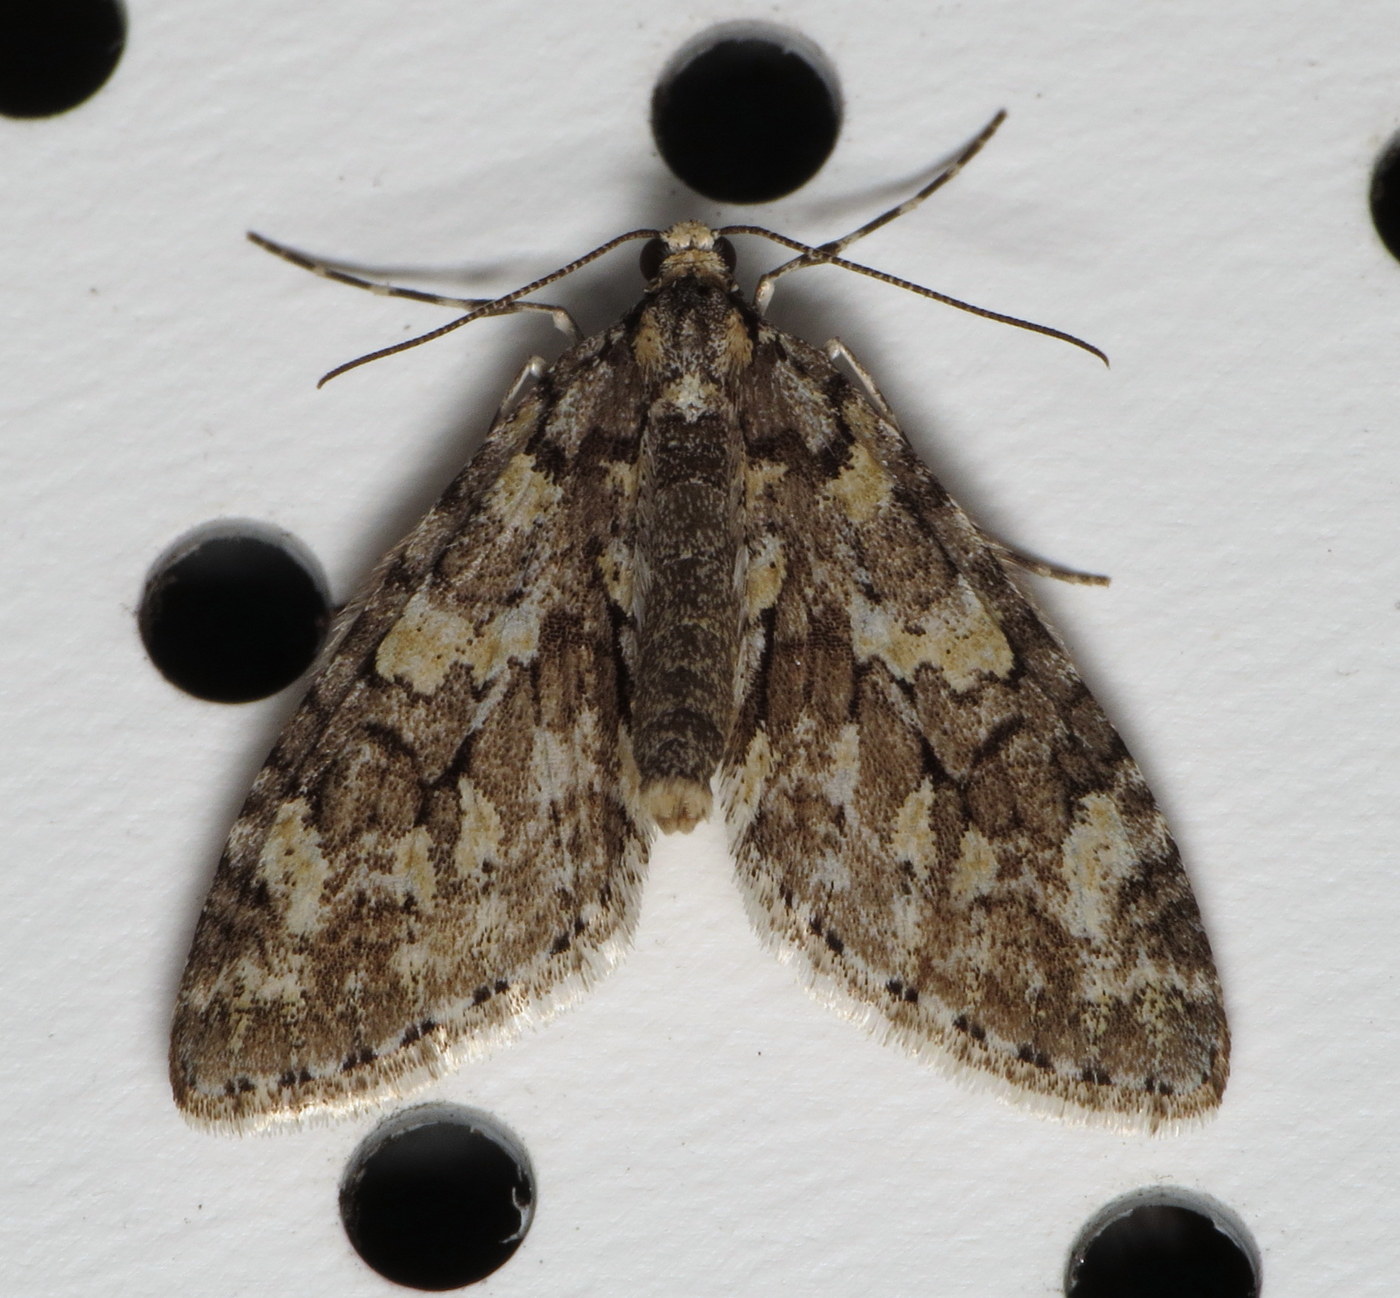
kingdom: Animalia
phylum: Arthropoda
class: Insecta
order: Lepidoptera
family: Geometridae
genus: Cladara
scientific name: Cladara limitaria
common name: Mottled gray carpet
